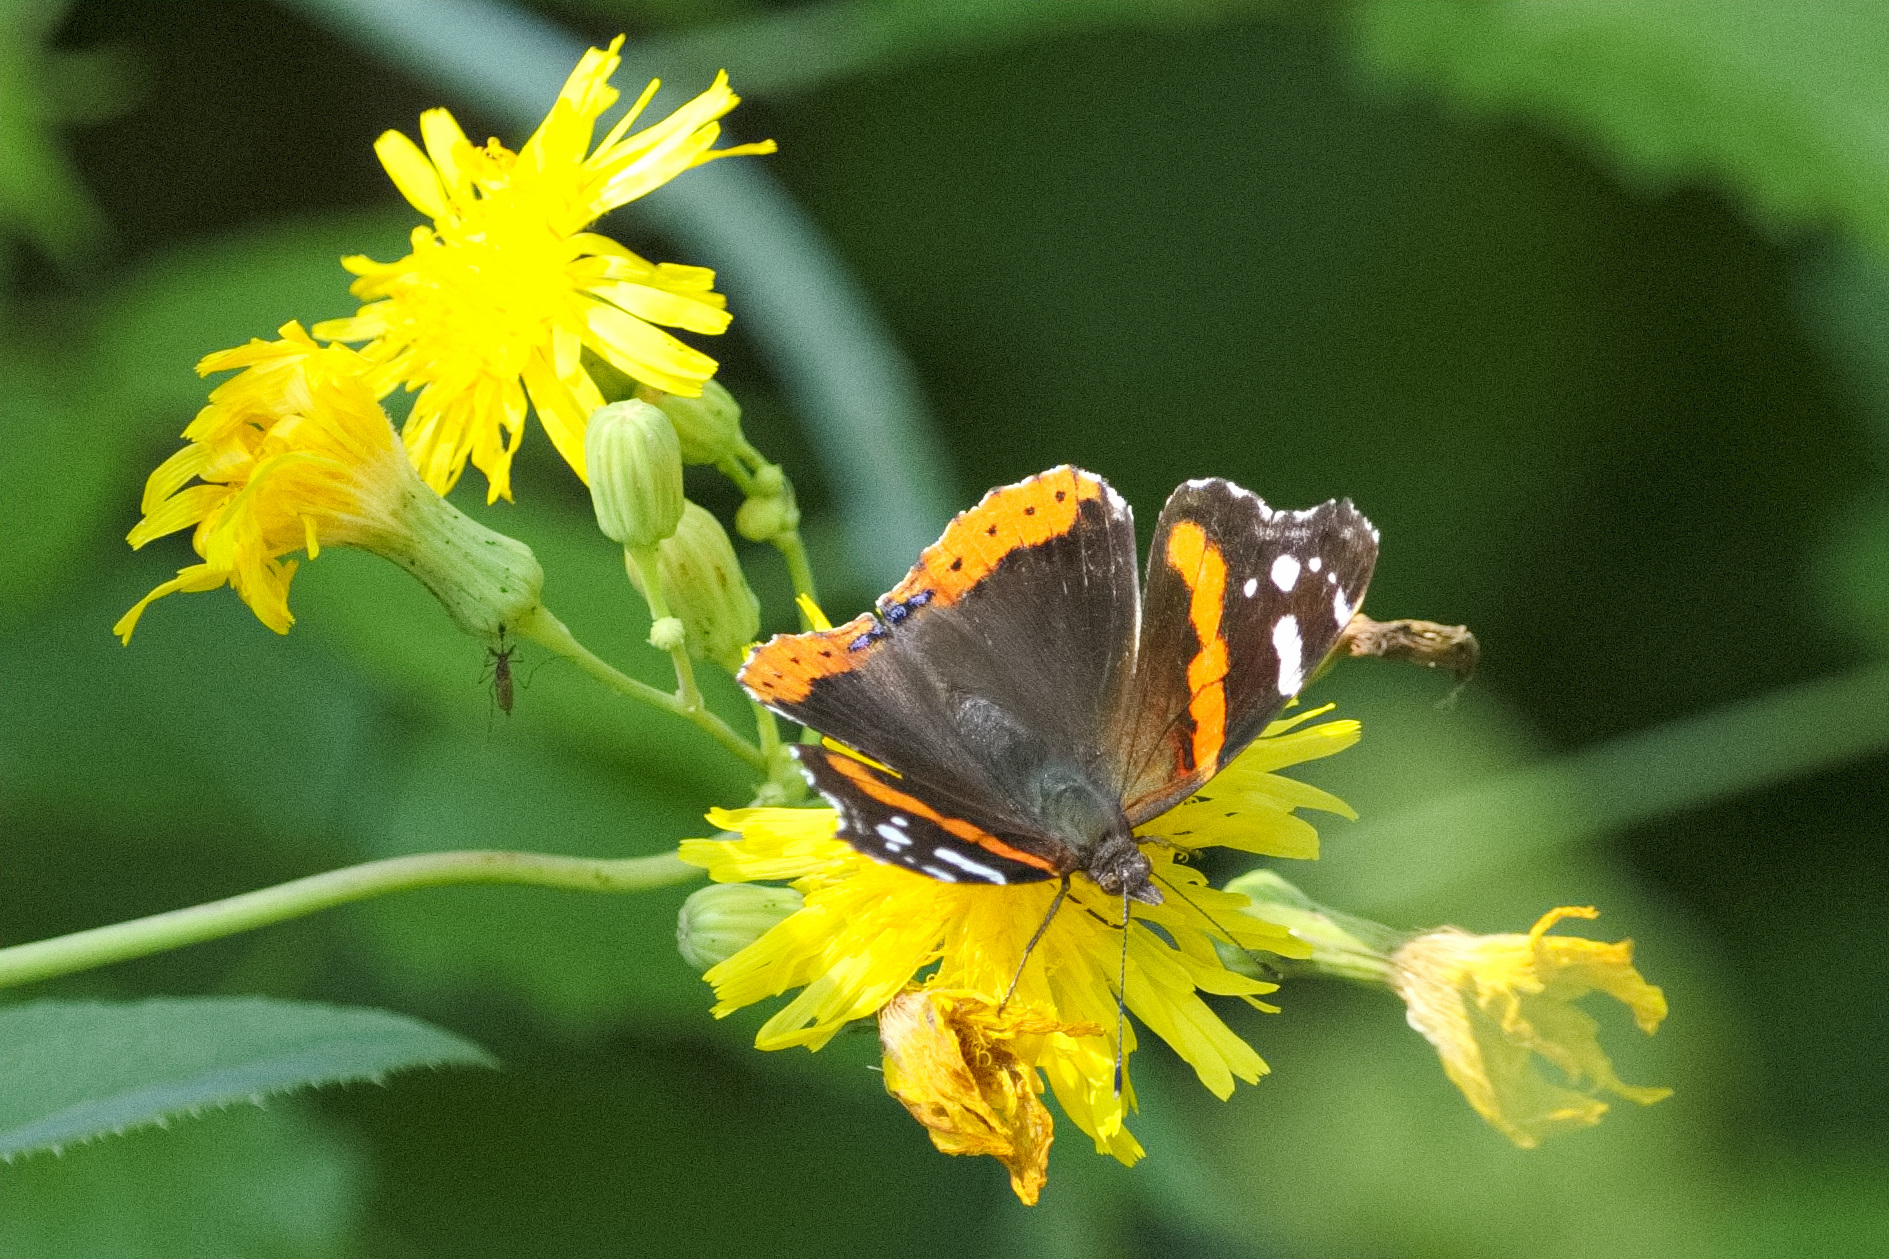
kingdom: Animalia
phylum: Arthropoda
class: Insecta
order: Lepidoptera
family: Nymphalidae
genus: Vanessa
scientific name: Vanessa atalanta
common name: Red admiral
